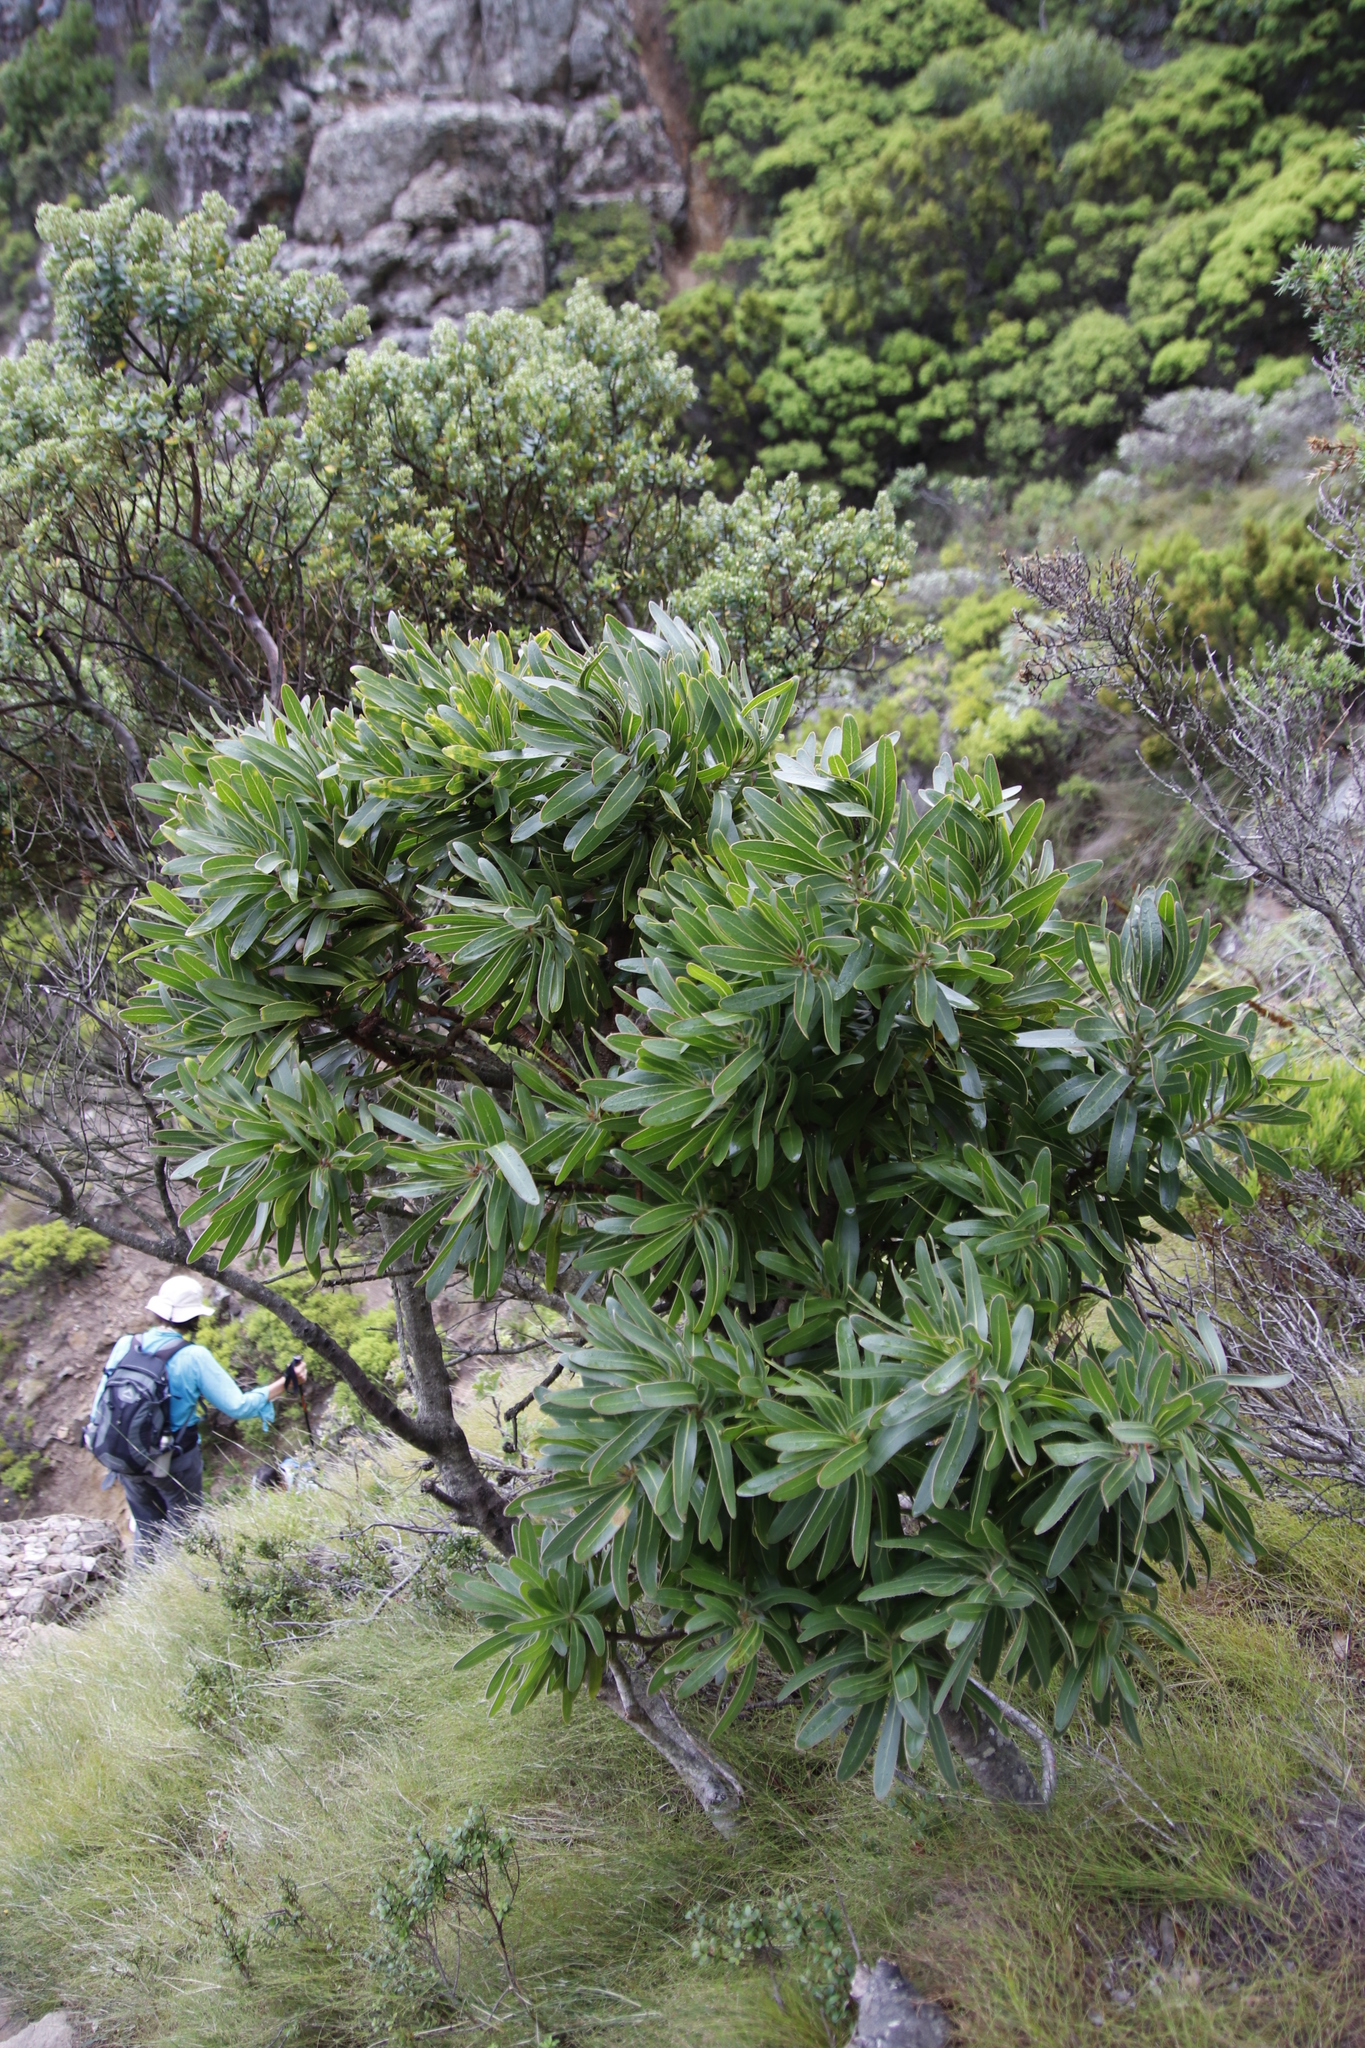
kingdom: Plantae
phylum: Tracheophyta
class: Magnoliopsida
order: Proteales
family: Proteaceae
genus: Protea
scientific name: Protea lepidocarpodendron
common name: Black-bearded protea
